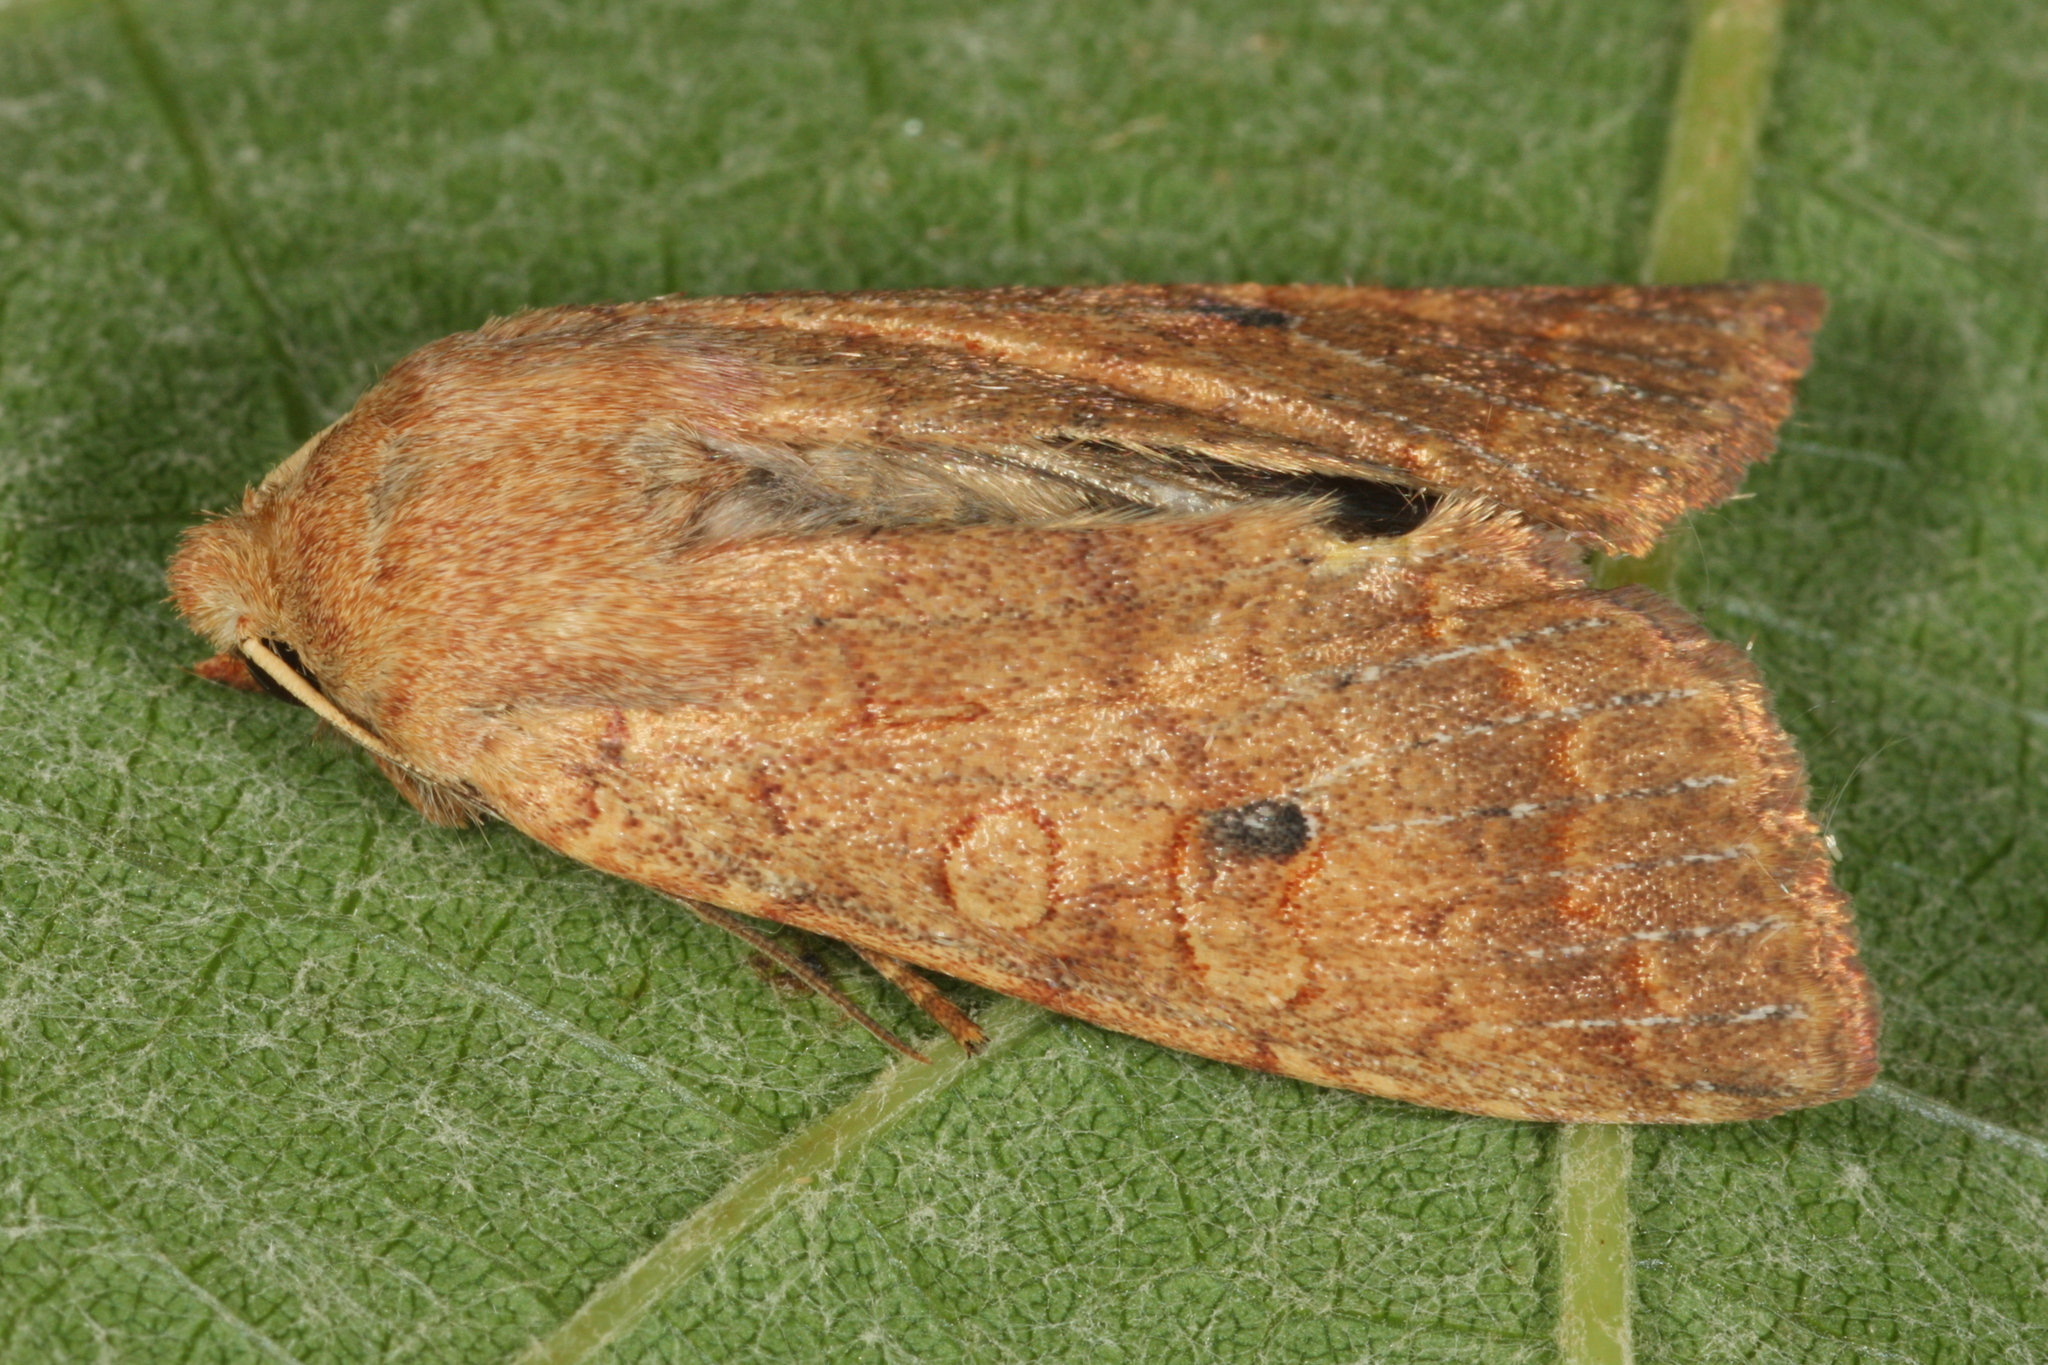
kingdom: Animalia
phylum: Arthropoda
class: Insecta
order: Lepidoptera
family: Noctuidae
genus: Sunira
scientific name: Sunira circellaris
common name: Brick
